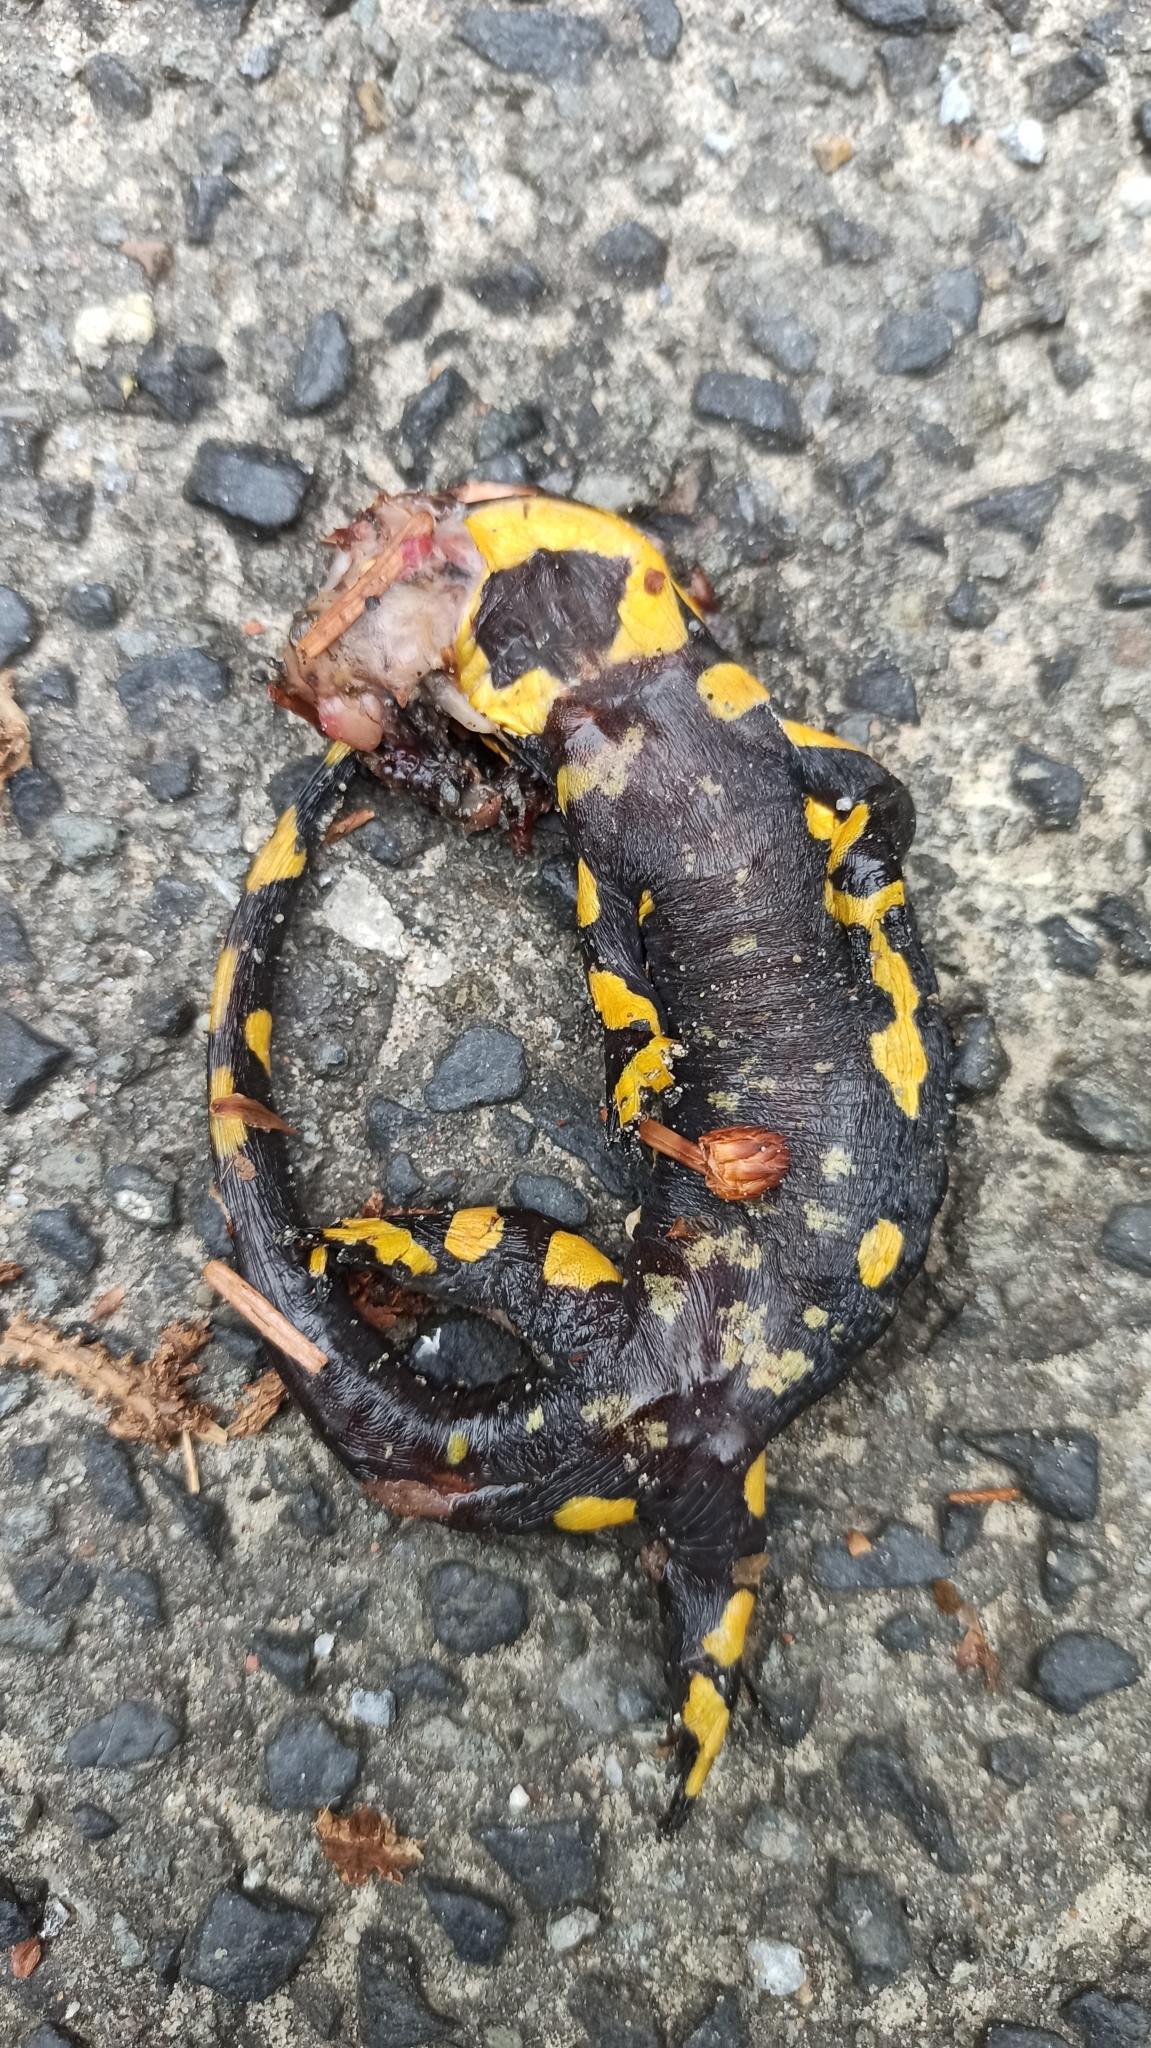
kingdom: Animalia
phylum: Chordata
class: Amphibia
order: Caudata
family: Salamandridae
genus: Salamandra
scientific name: Salamandra salamandra
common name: Fire salamander
